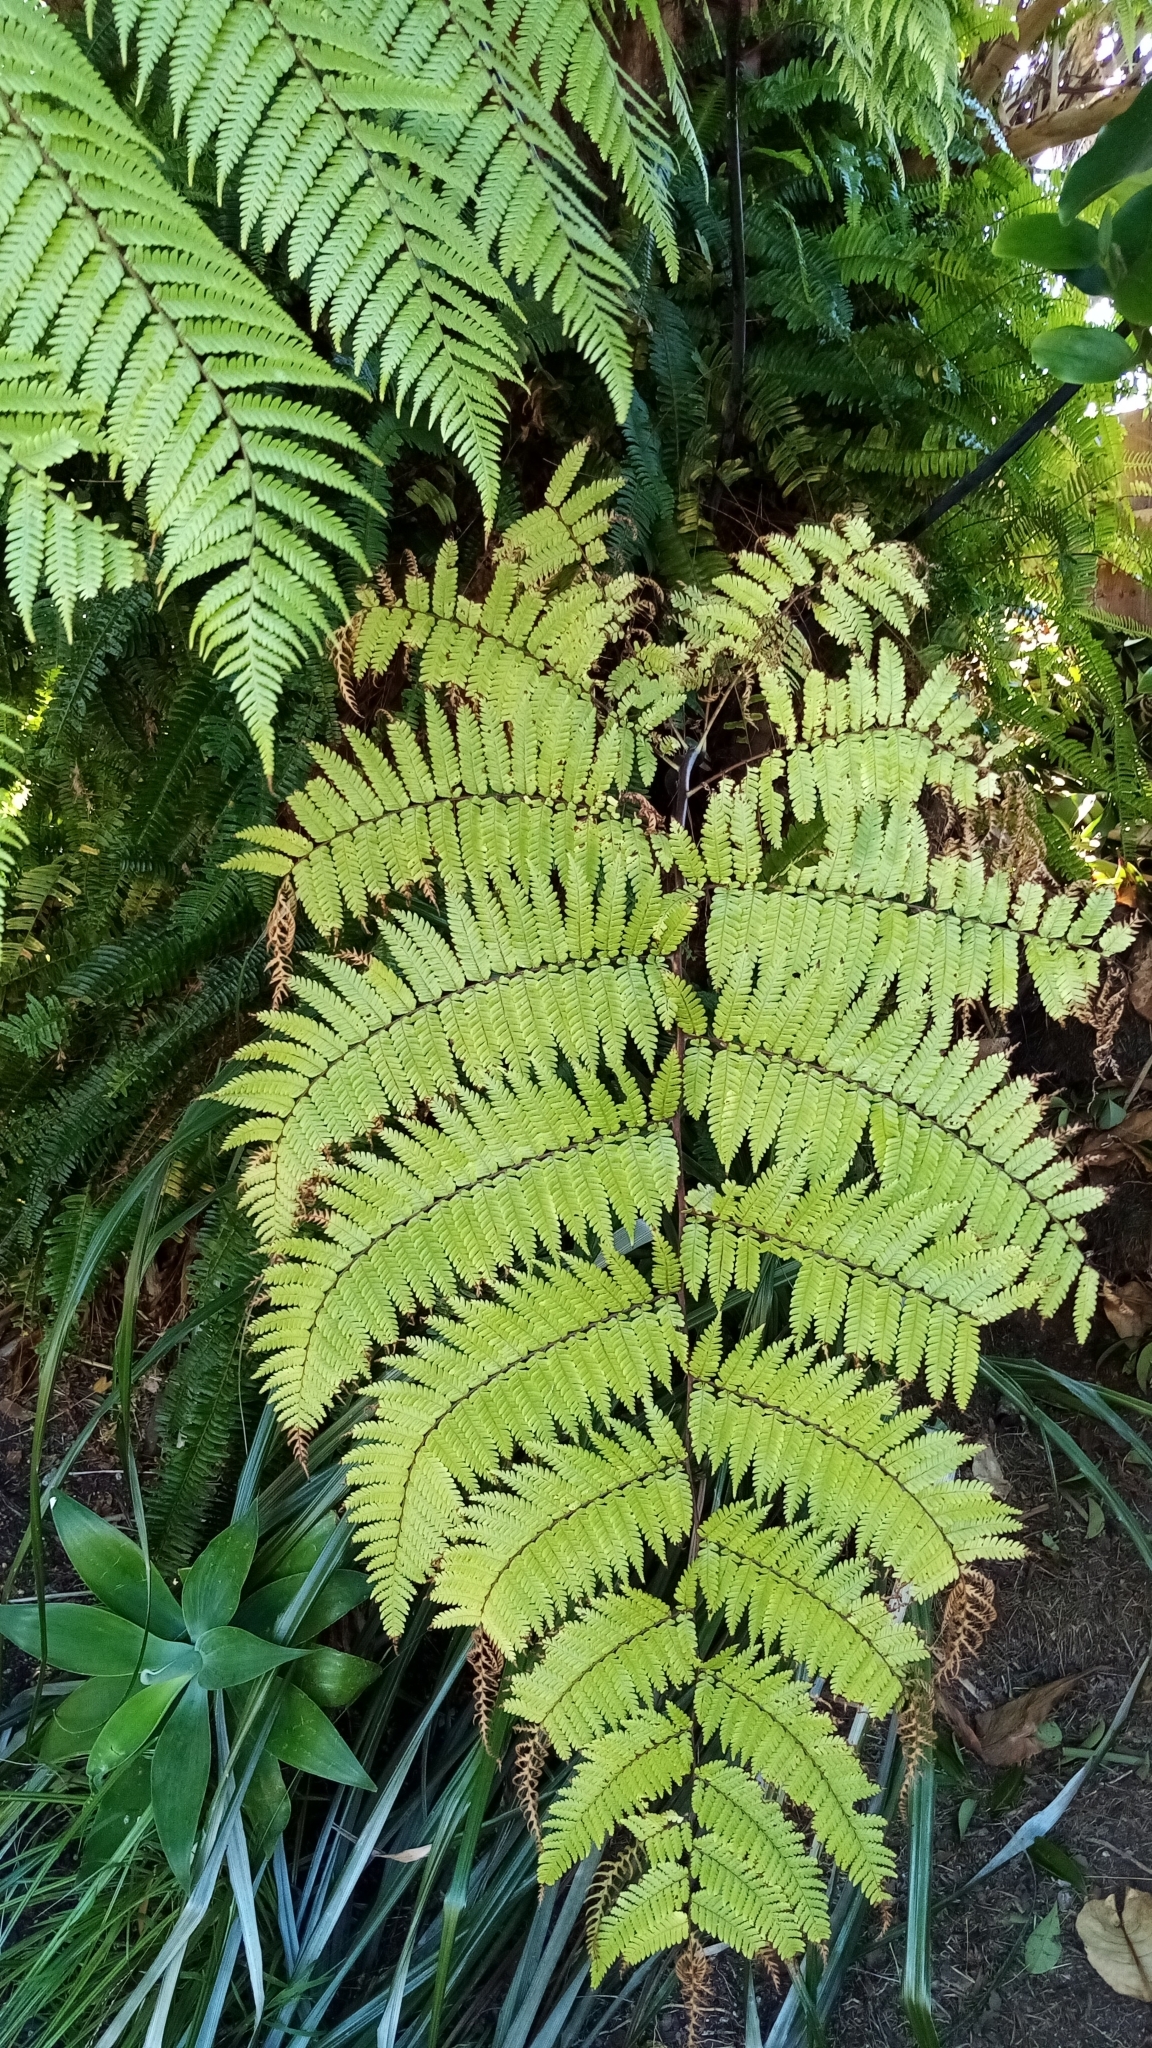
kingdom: Plantae
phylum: Tracheophyta
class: Polypodiopsida
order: Cyatheales
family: Cyatheaceae
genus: Sphaeropteris
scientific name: Sphaeropteris medullaris
